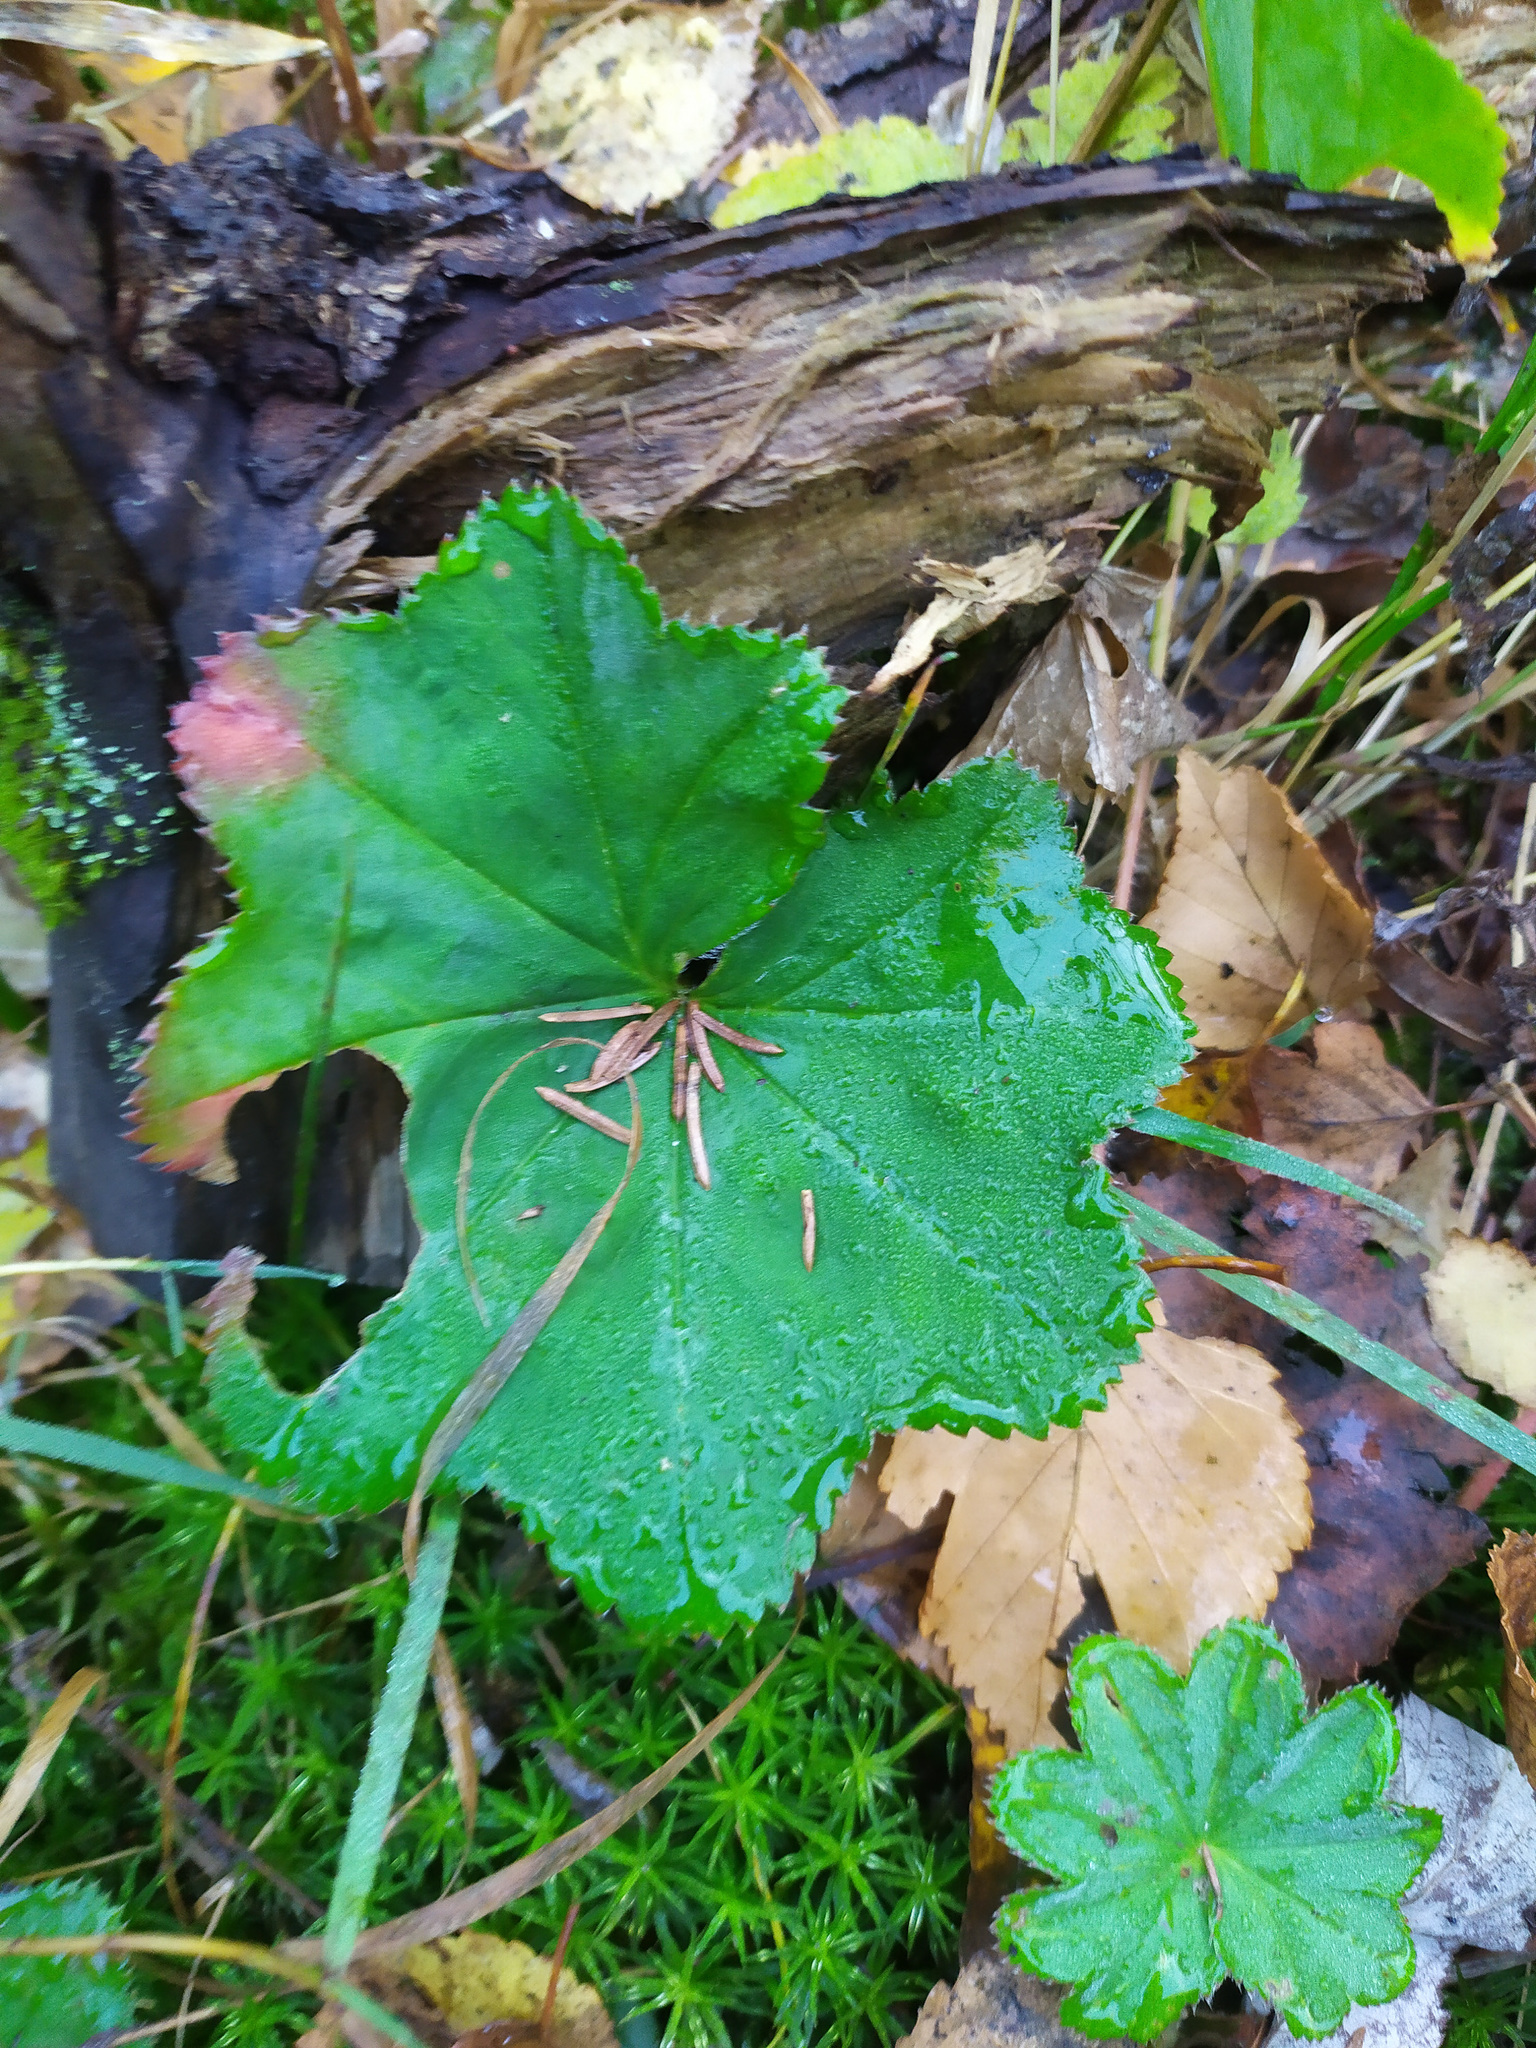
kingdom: Plantae
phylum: Tracheophyta
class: Magnoliopsida
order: Rosales
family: Rosaceae
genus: Alchemilla
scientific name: Alchemilla
